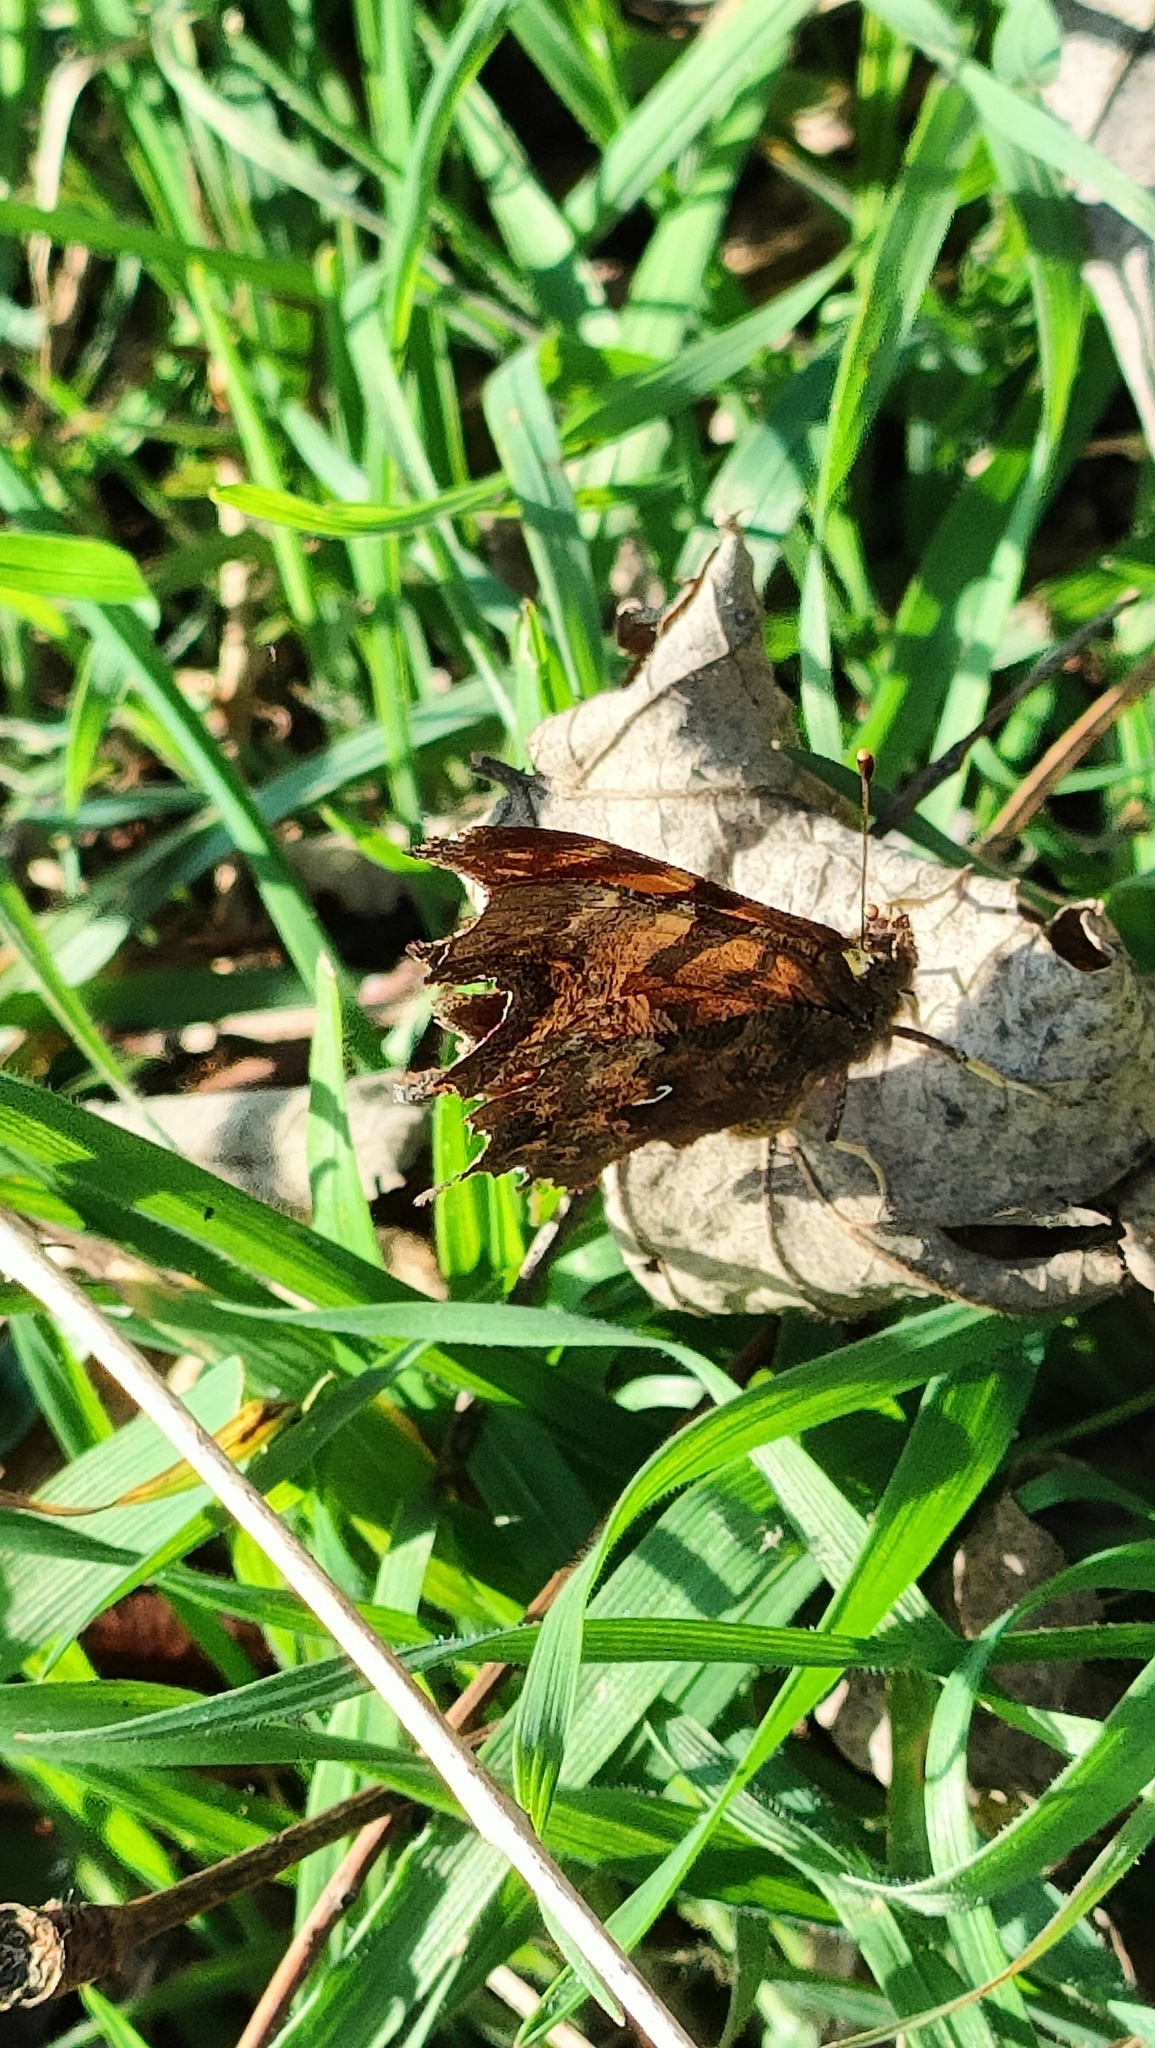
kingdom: Animalia
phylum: Arthropoda
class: Insecta
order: Lepidoptera
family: Nymphalidae
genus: Polygonia
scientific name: Polygonia c-album
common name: Comma
